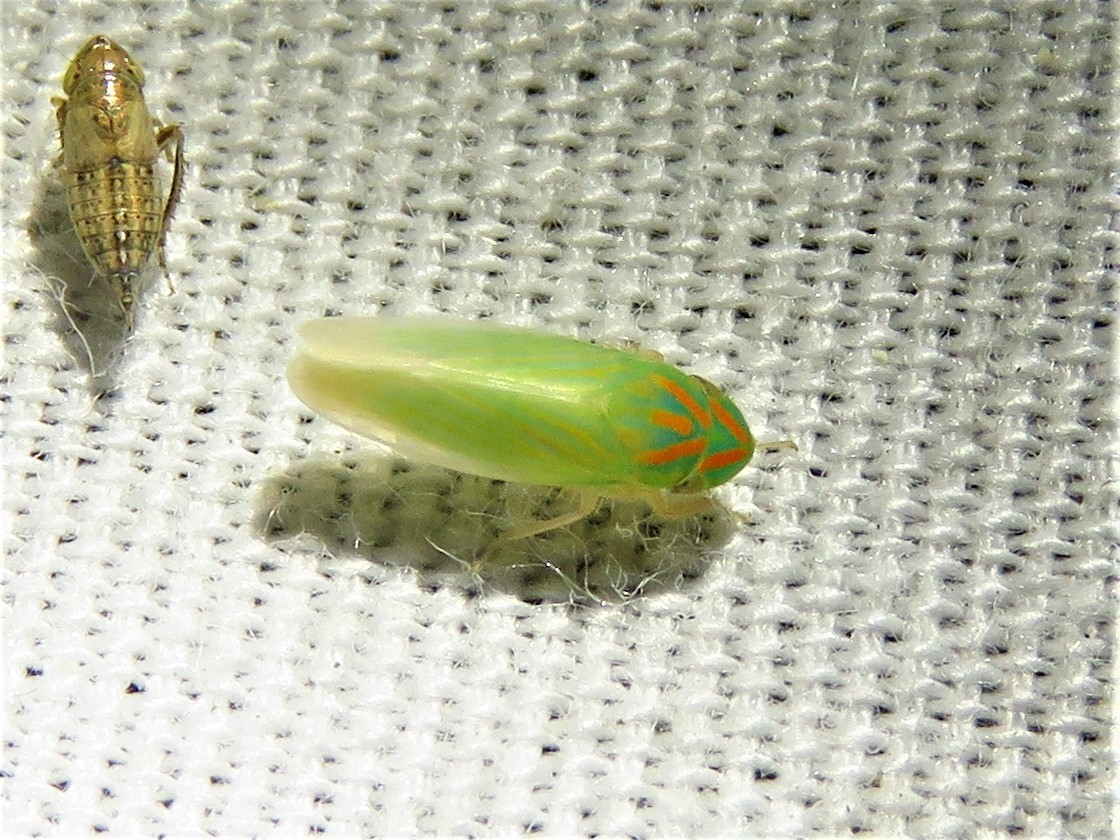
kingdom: Animalia
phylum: Arthropoda
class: Insecta
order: Hemiptera
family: Cicadellidae
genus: Spangbergiella
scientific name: Spangbergiella vulnerata
